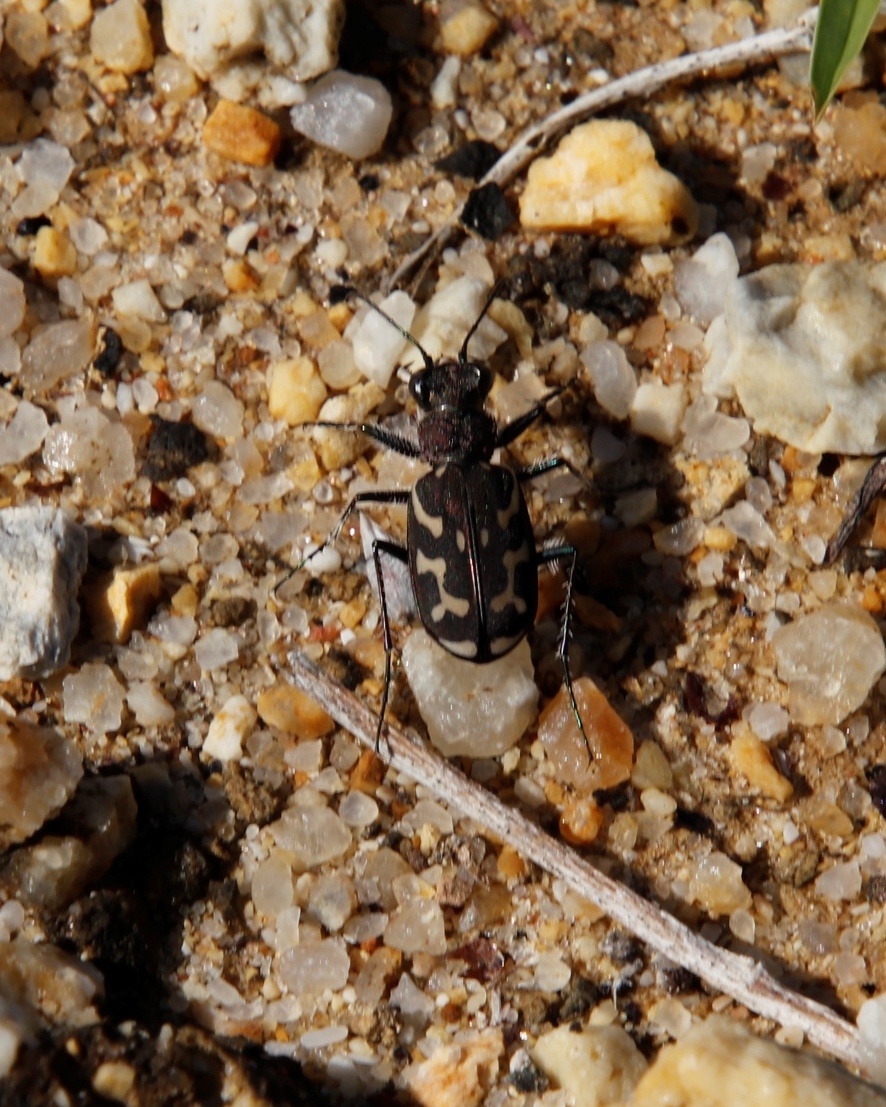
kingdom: Animalia
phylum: Arthropoda
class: Insecta
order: Coleoptera
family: Carabidae
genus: Cicindela
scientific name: Cicindela lurida
